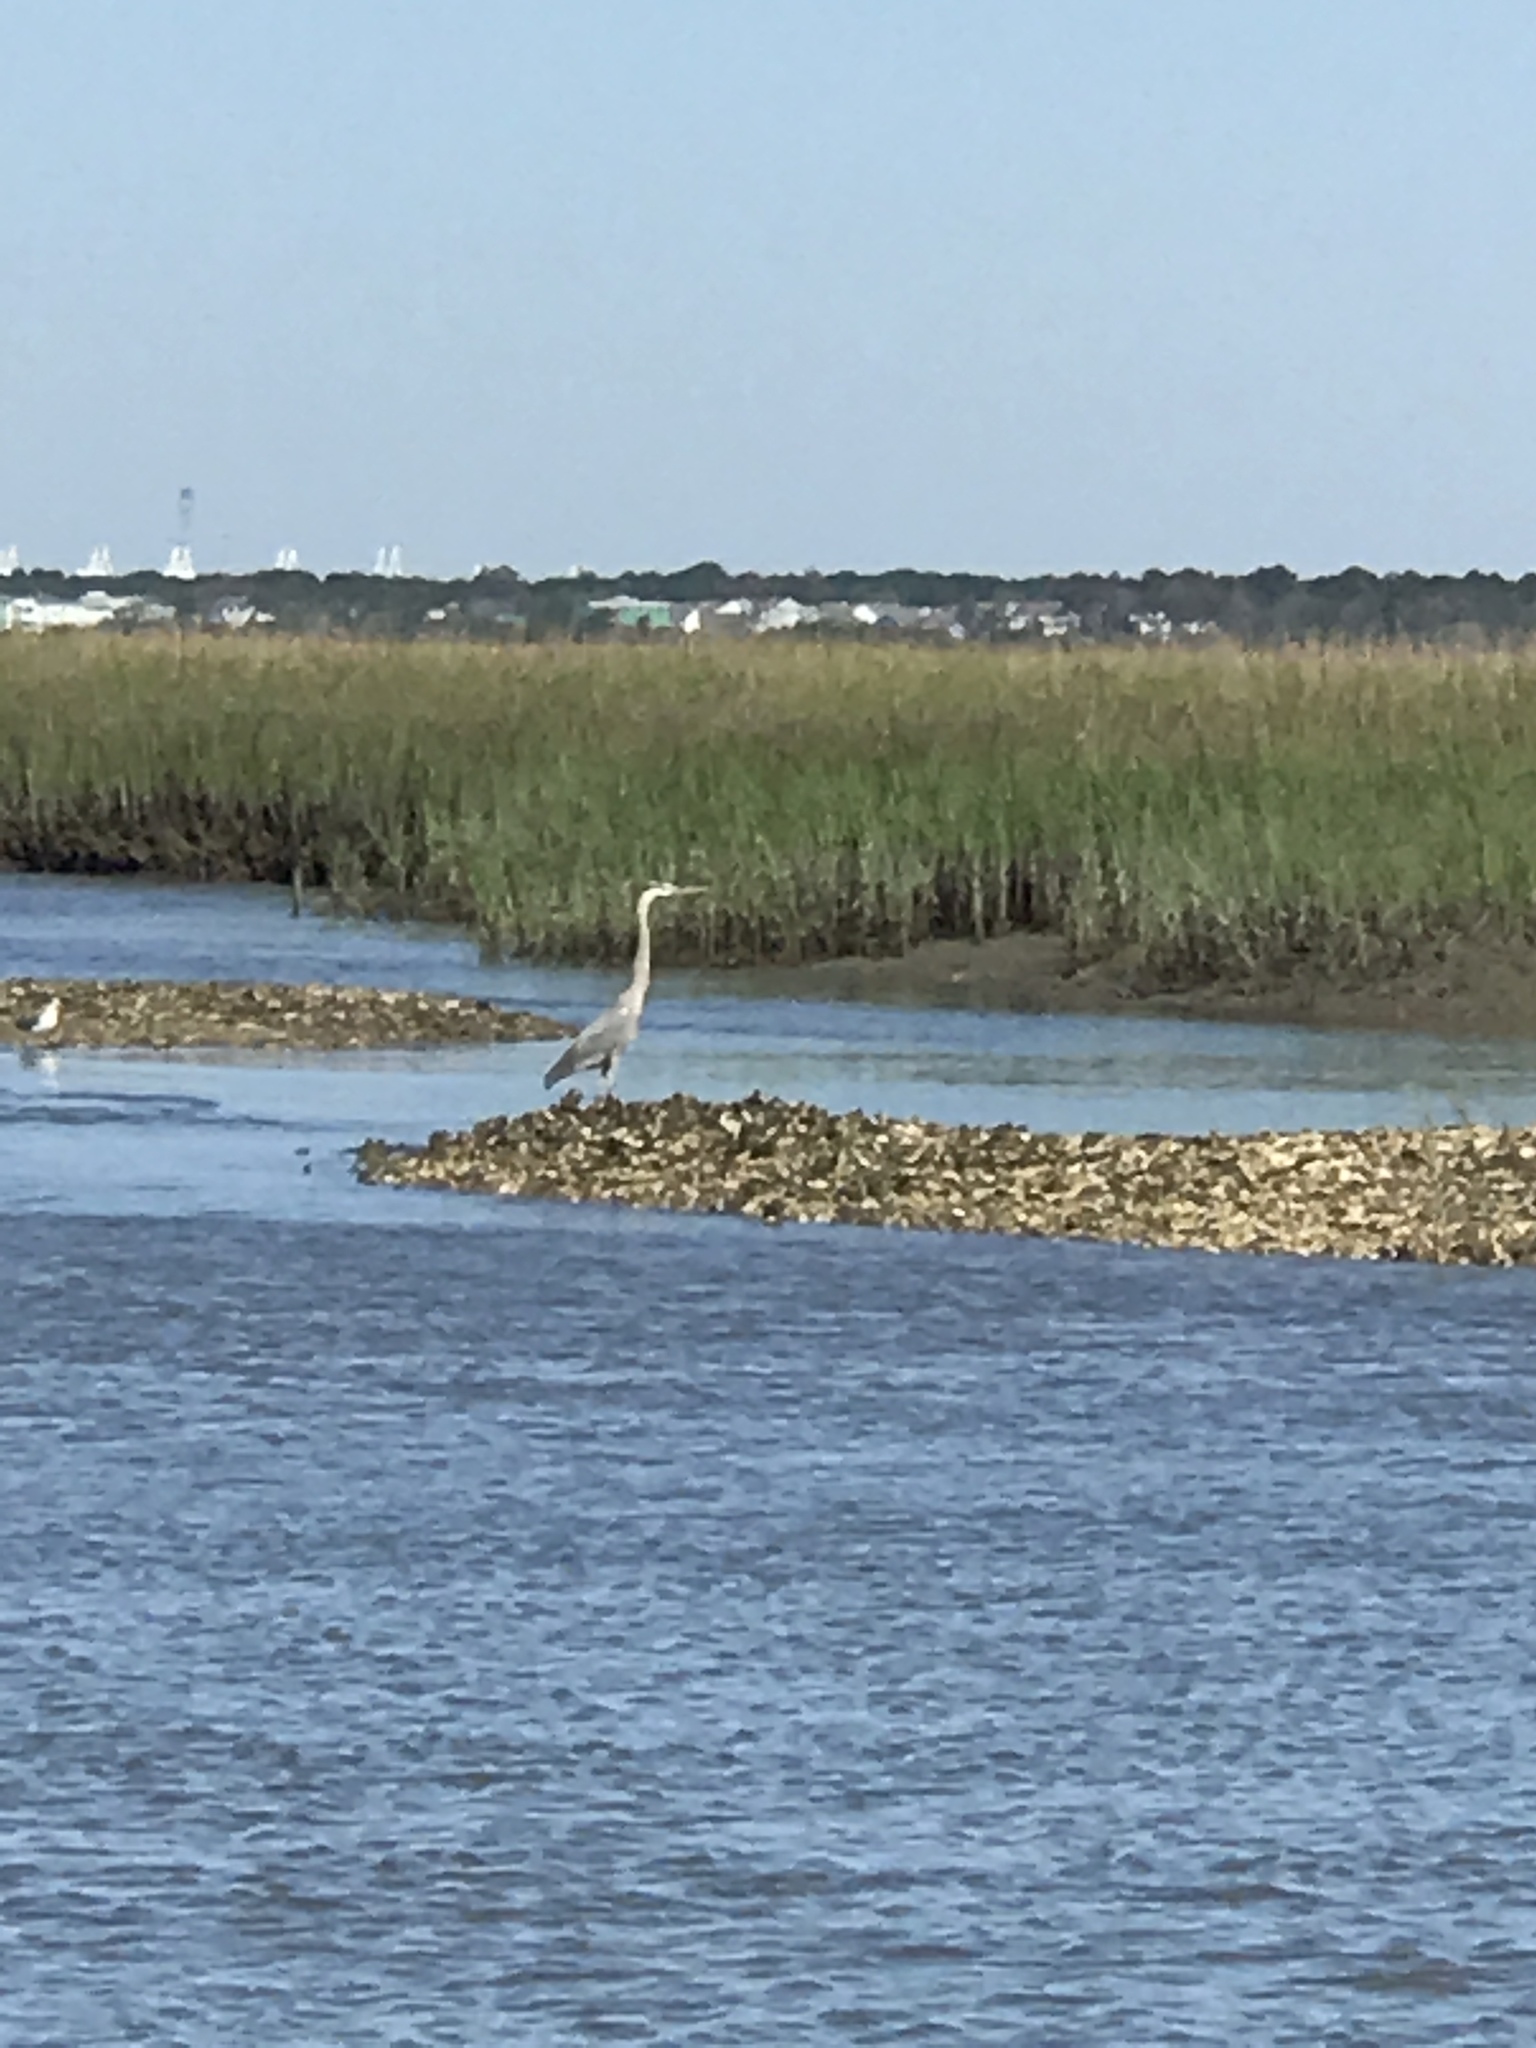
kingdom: Animalia
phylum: Chordata
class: Aves
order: Pelecaniformes
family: Ardeidae
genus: Ardea
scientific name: Ardea herodias
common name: Great blue heron
